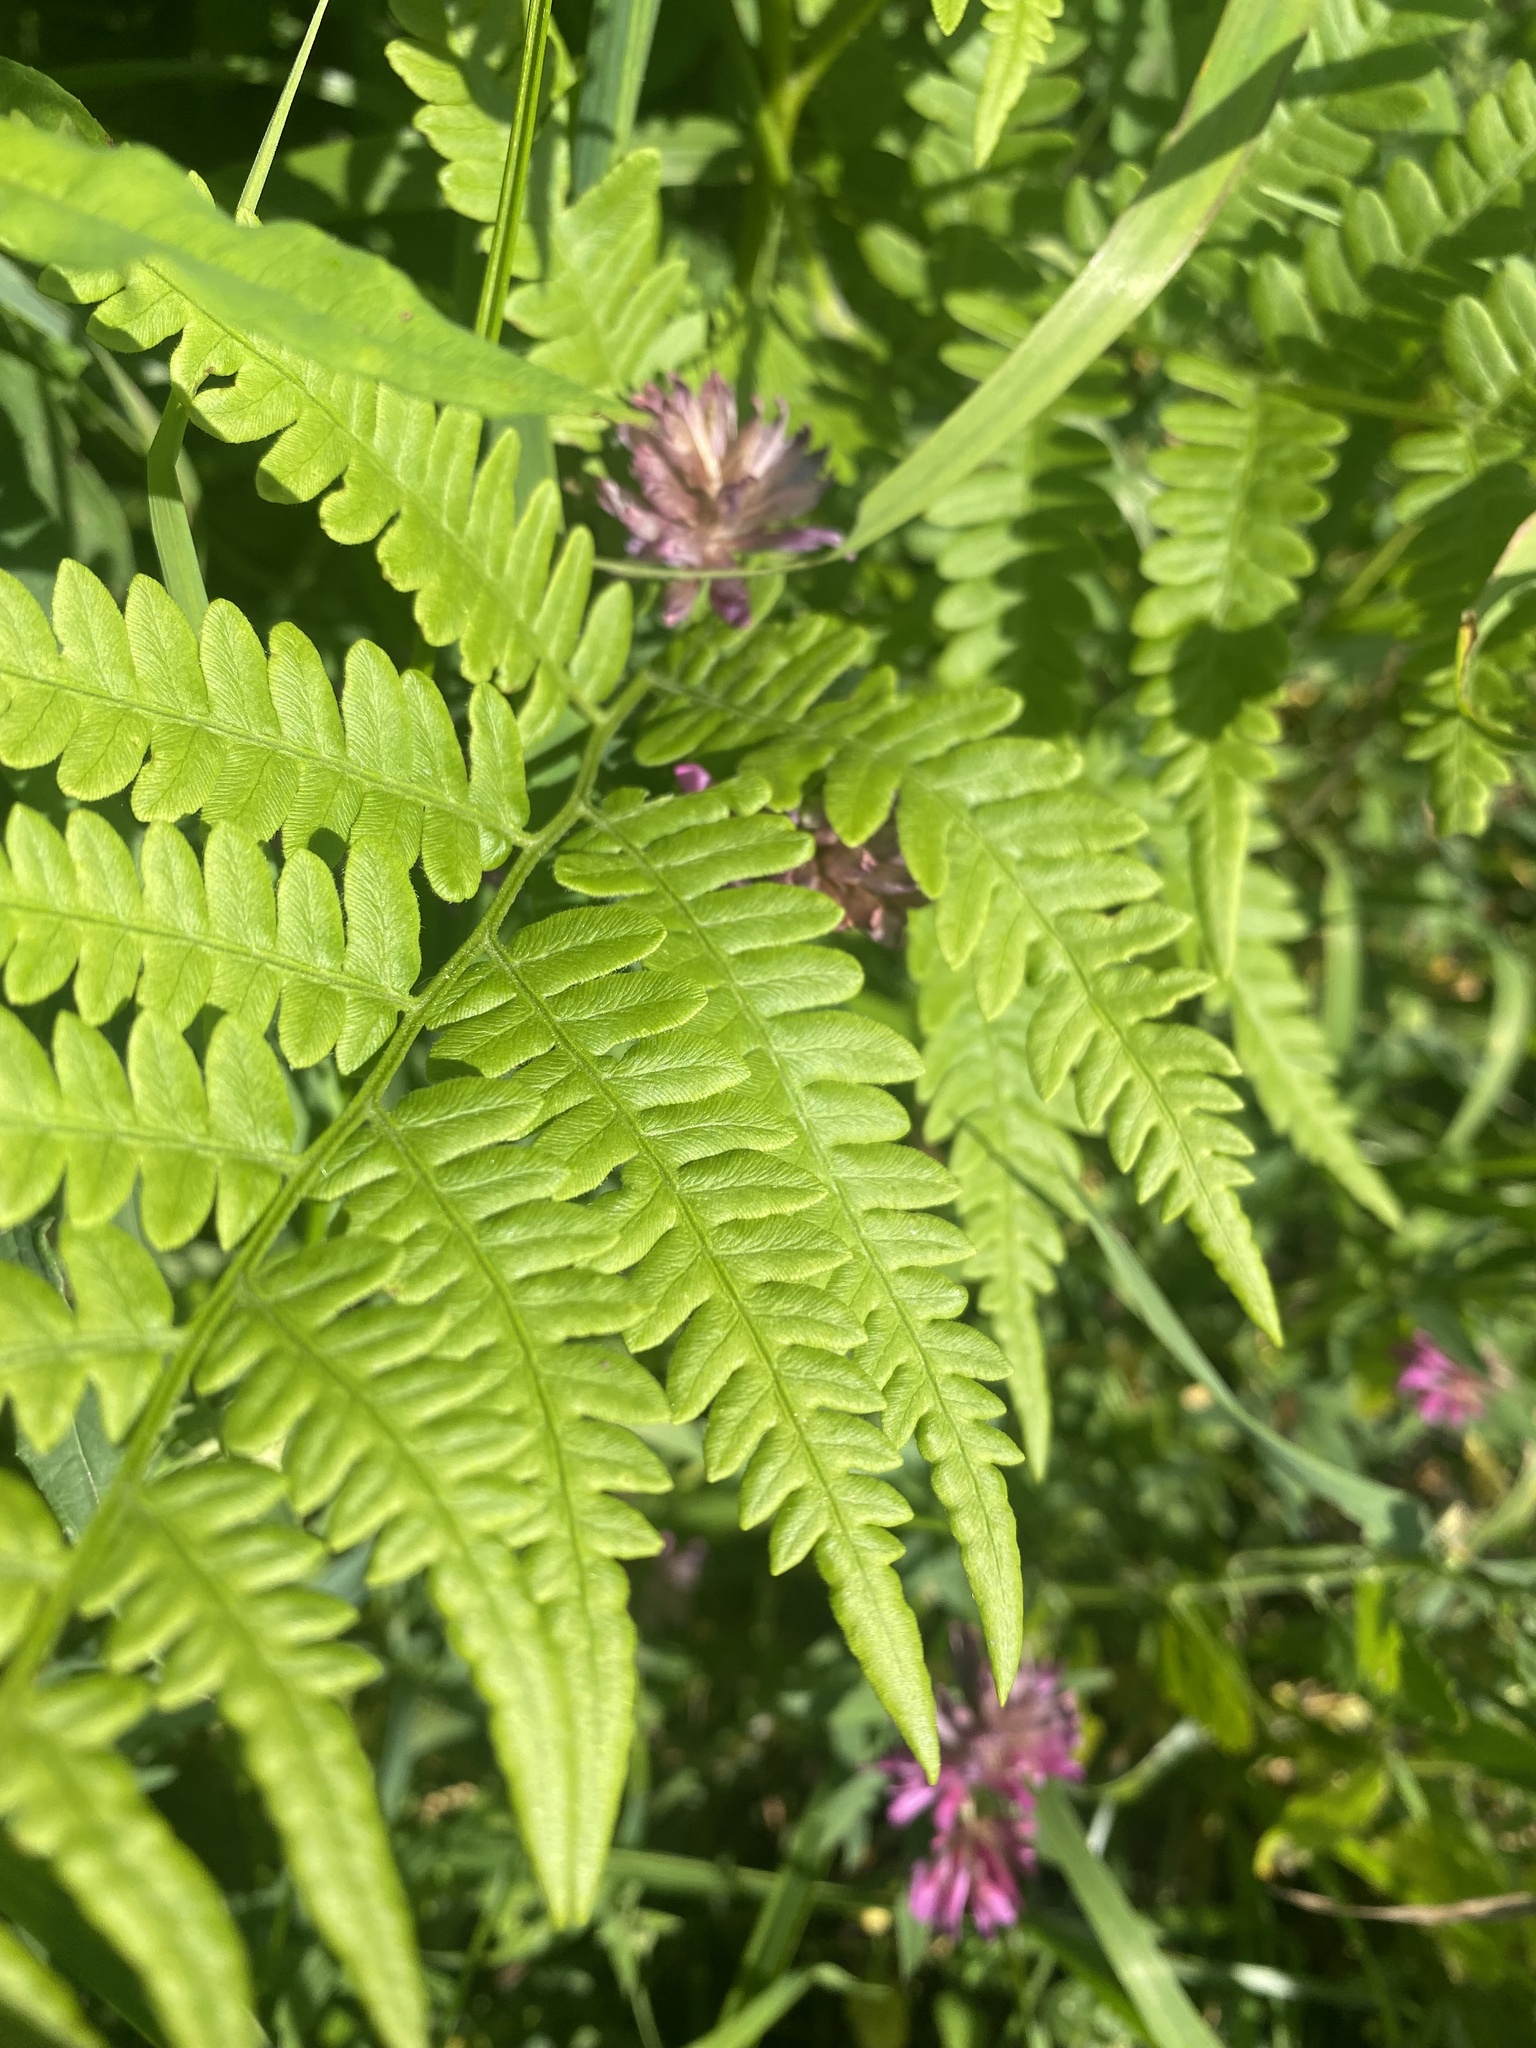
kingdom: Plantae
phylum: Tracheophyta
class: Polypodiopsida
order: Polypodiales
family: Dennstaedtiaceae
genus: Pteridium
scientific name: Pteridium aquilinum
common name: Bracken
